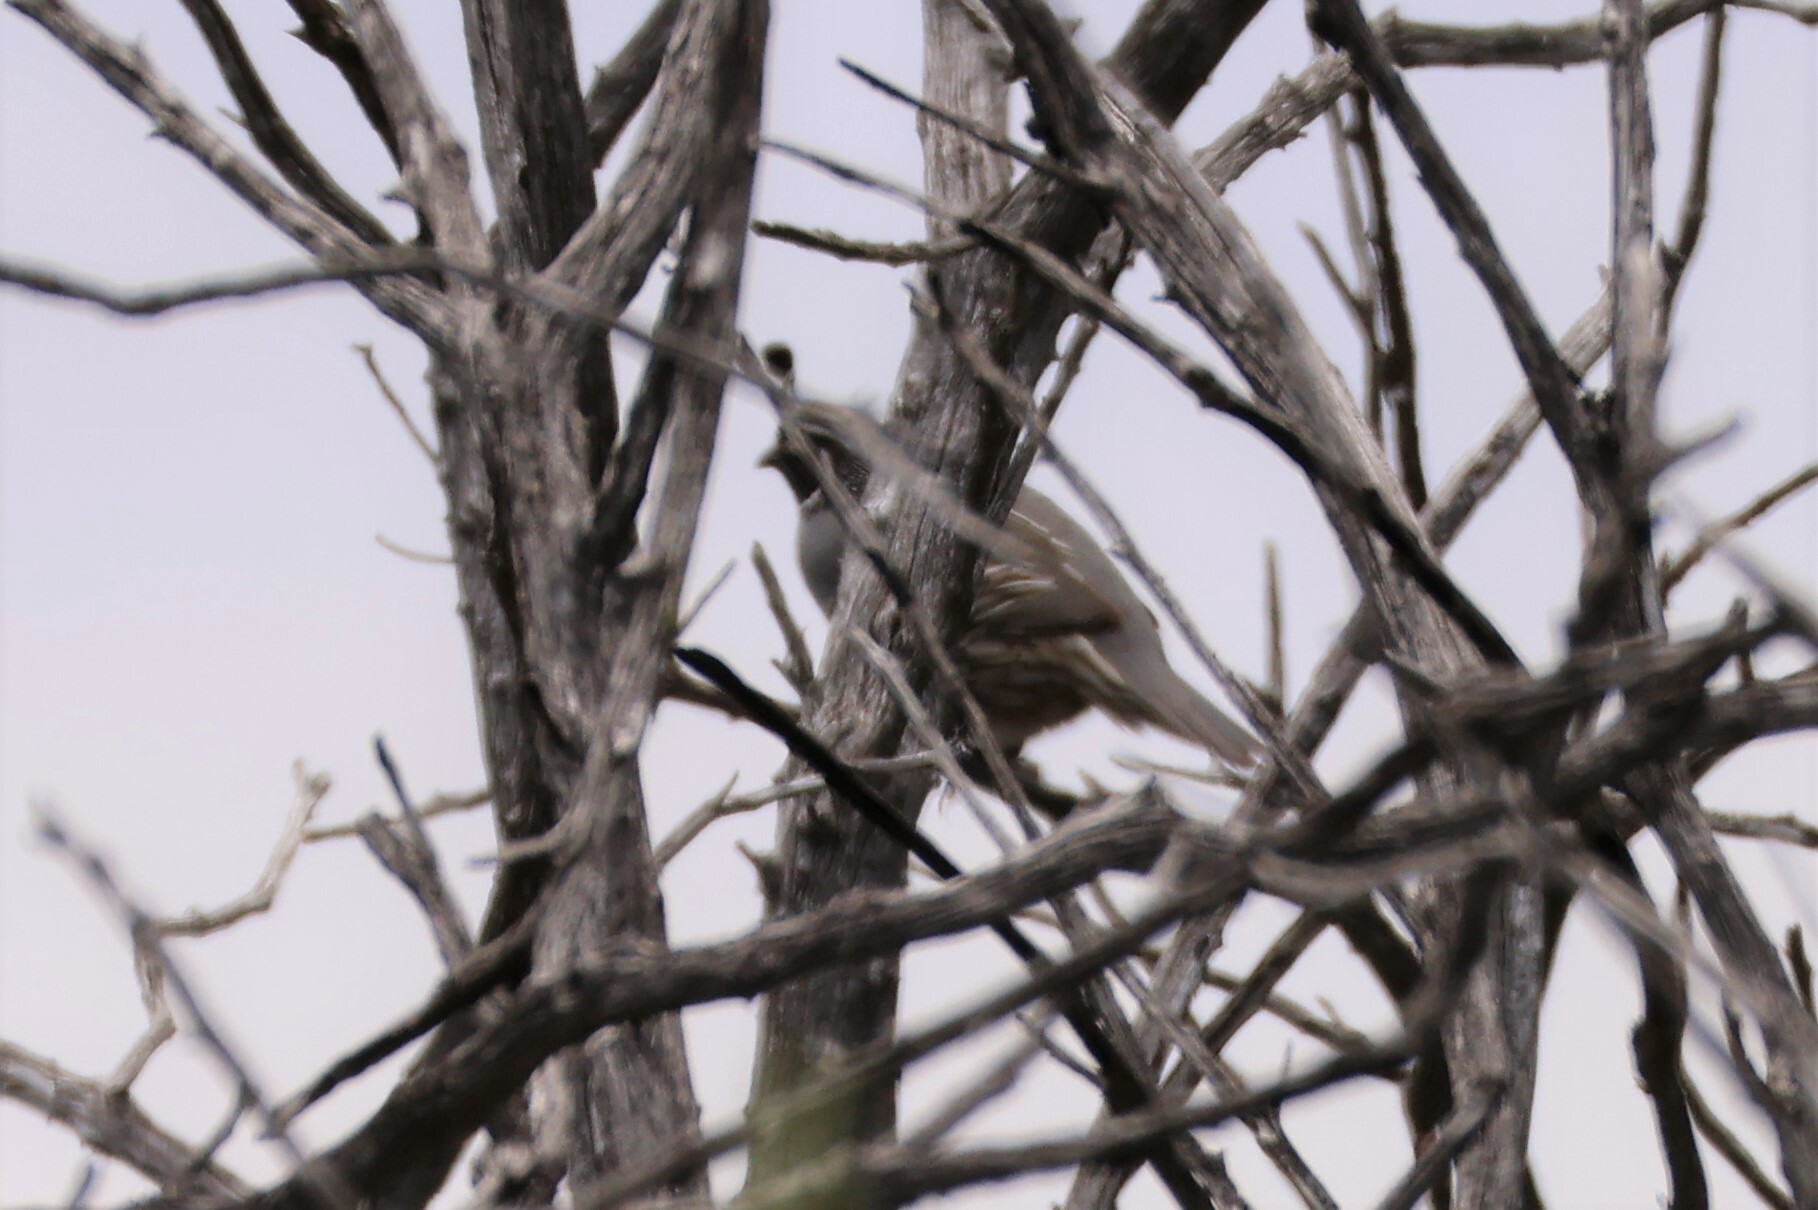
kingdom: Animalia
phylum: Chordata
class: Aves
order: Galliformes
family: Odontophoridae
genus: Callipepla
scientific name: Callipepla californica
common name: California quail
